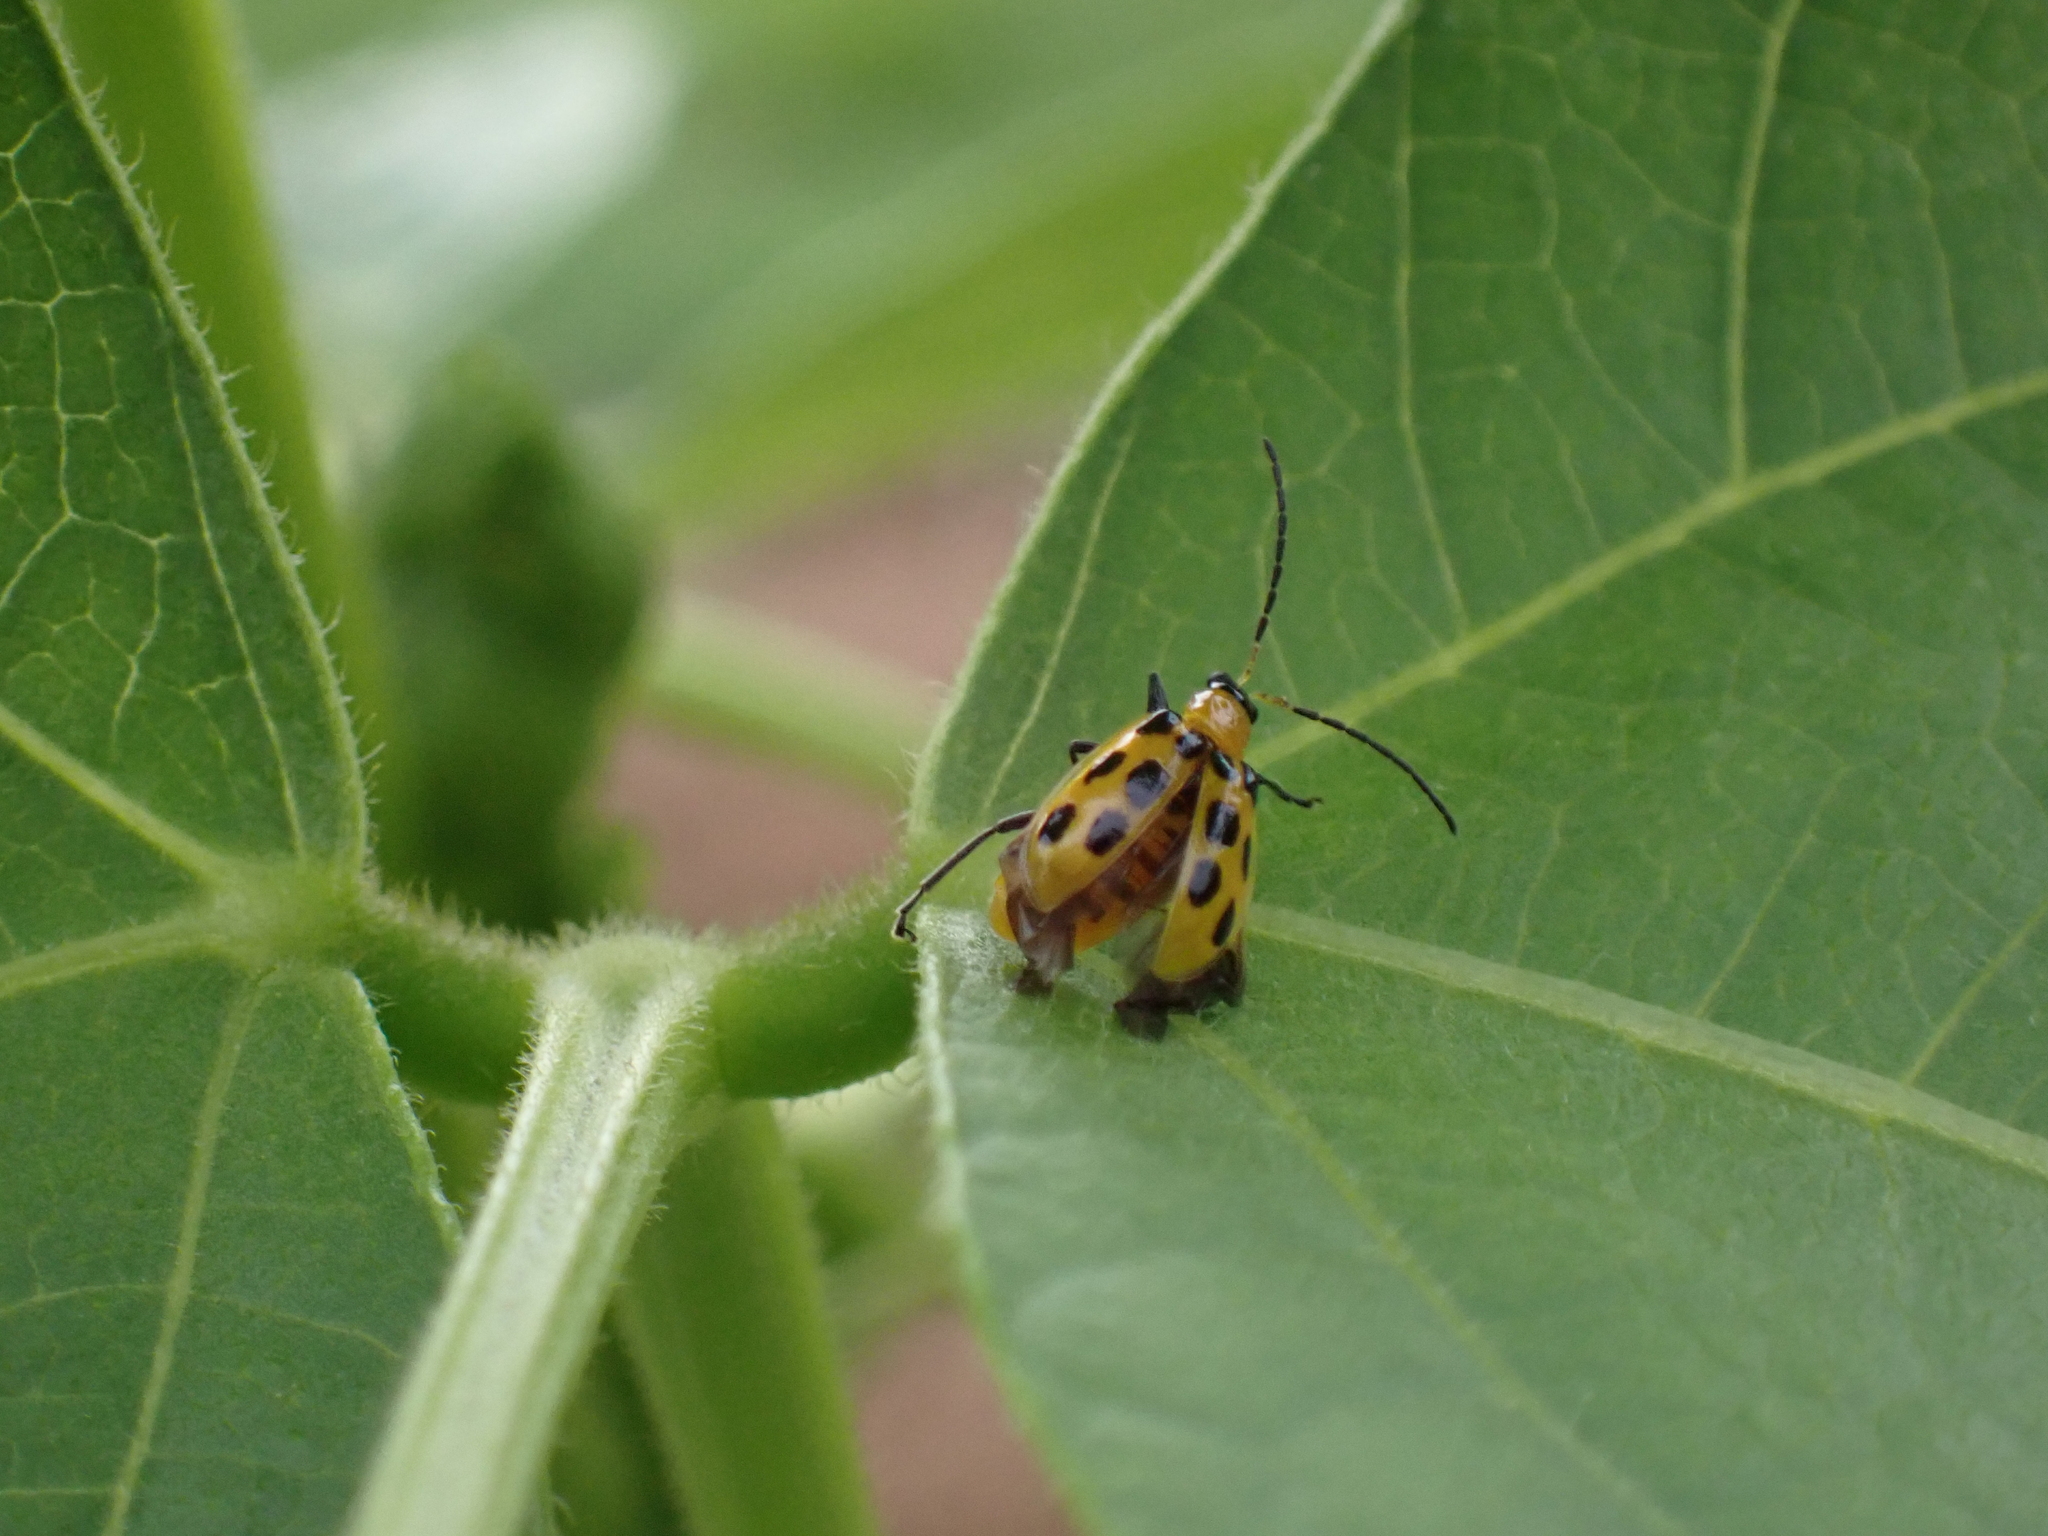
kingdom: Animalia
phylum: Arthropoda
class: Insecta
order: Coleoptera
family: Chrysomelidae
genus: Diabrotica
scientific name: Diabrotica undecimpunctata
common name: Spotted cucumber beetle
